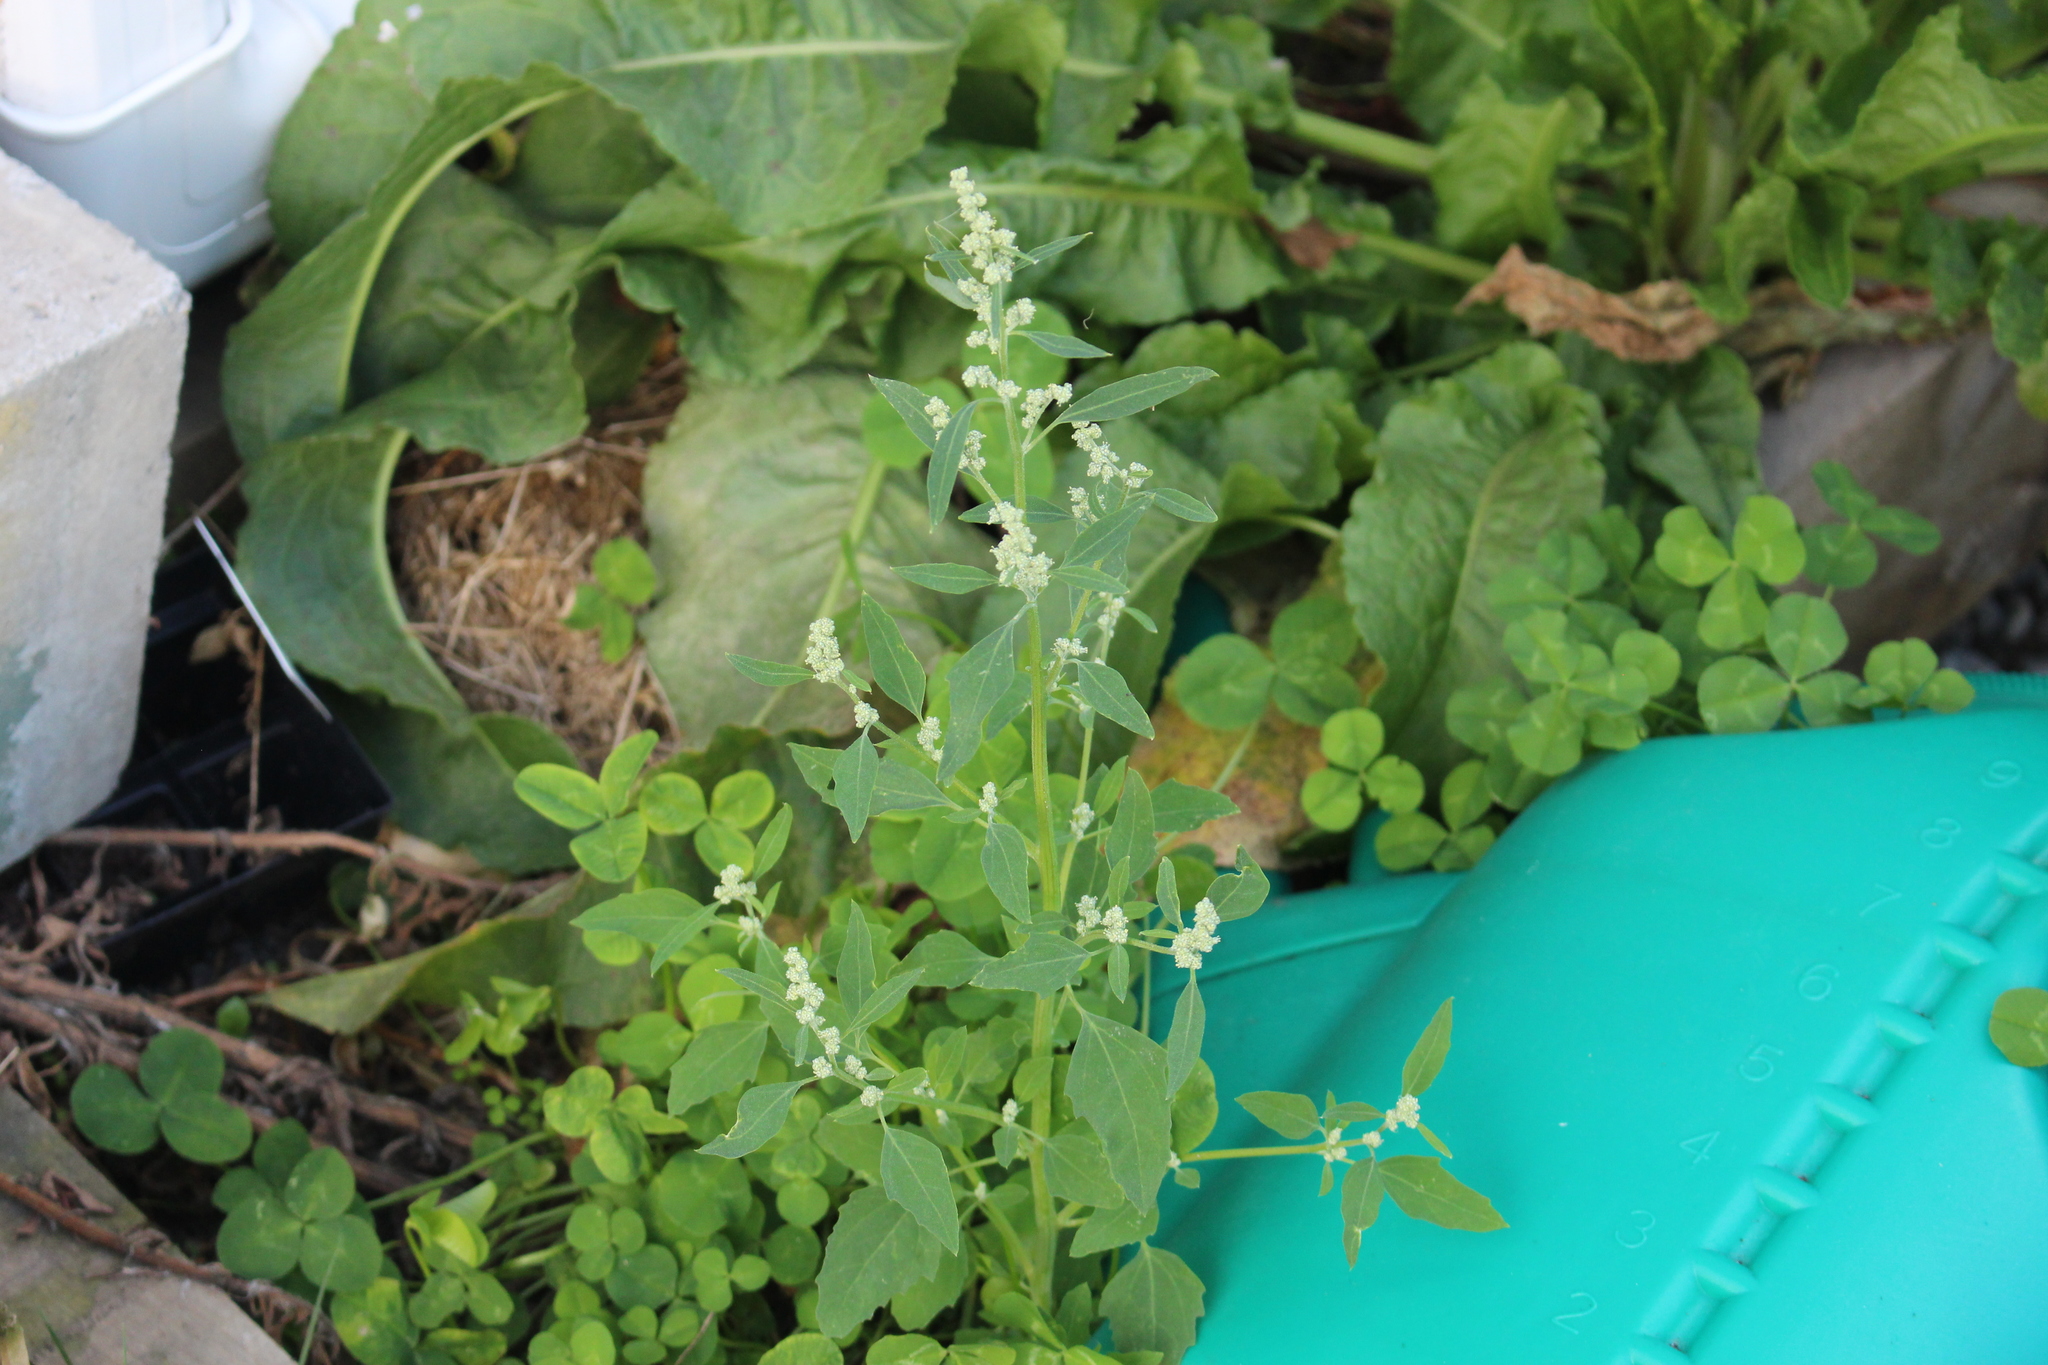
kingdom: Plantae
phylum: Tracheophyta
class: Magnoliopsida
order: Caryophyllales
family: Amaranthaceae
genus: Chenopodium
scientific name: Chenopodium album
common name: Fat-hen
